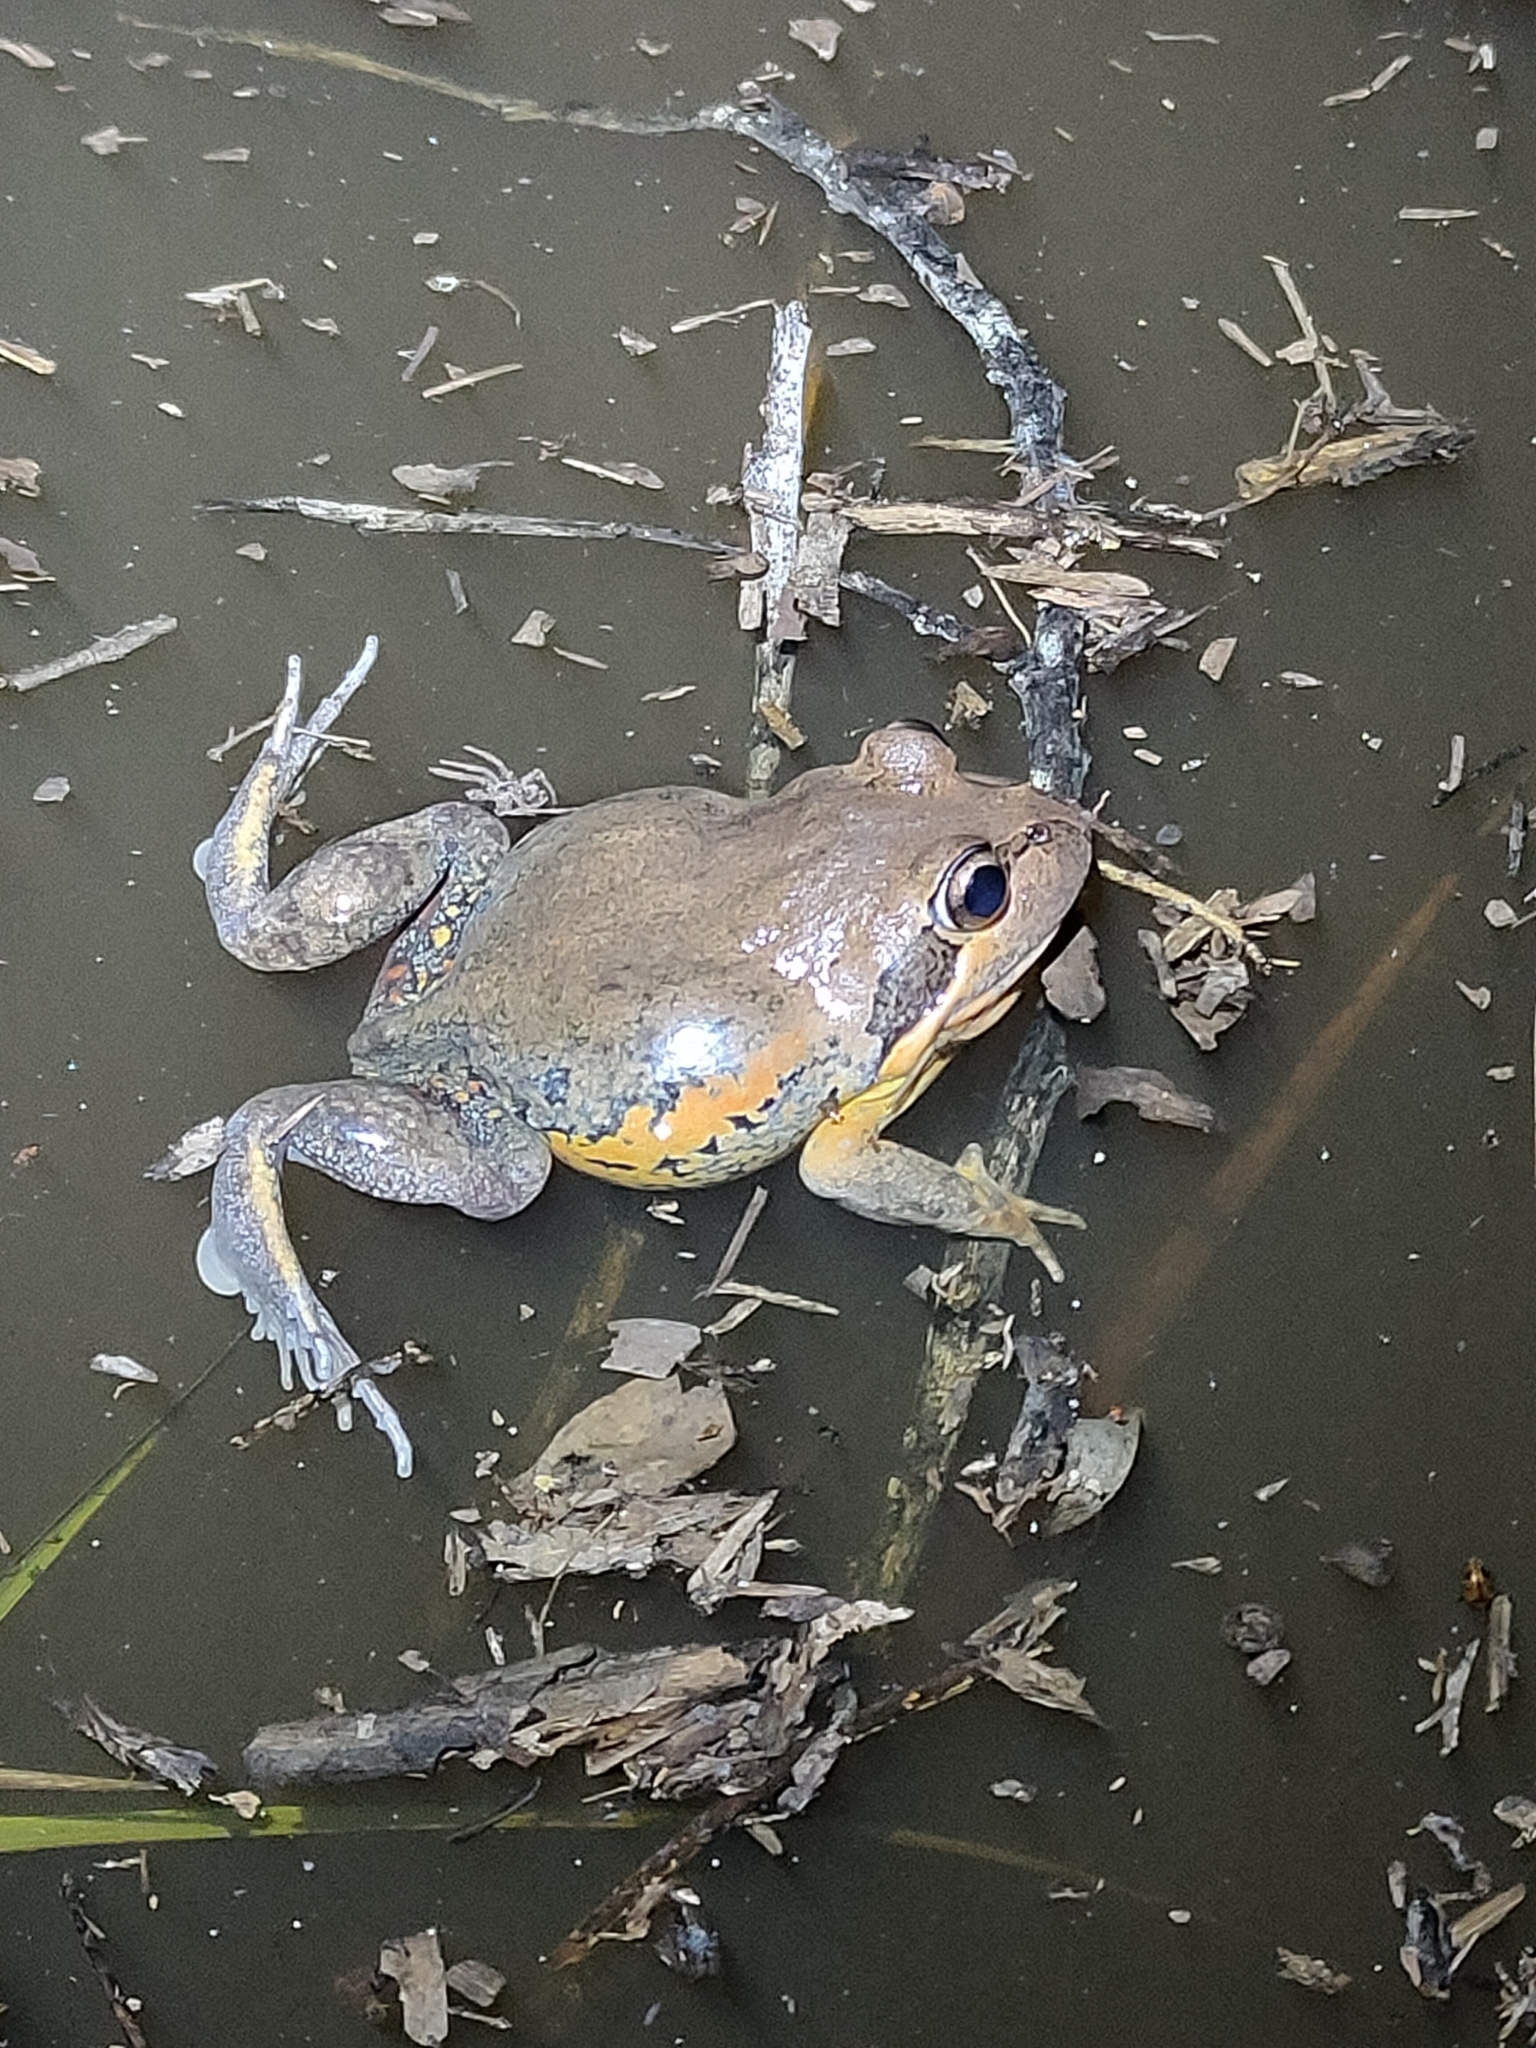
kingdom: Animalia
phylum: Chordata
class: Amphibia
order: Anura
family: Limnodynastidae
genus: Limnodynastes
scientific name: Limnodynastes terraereginae
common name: Northern banjo frog
